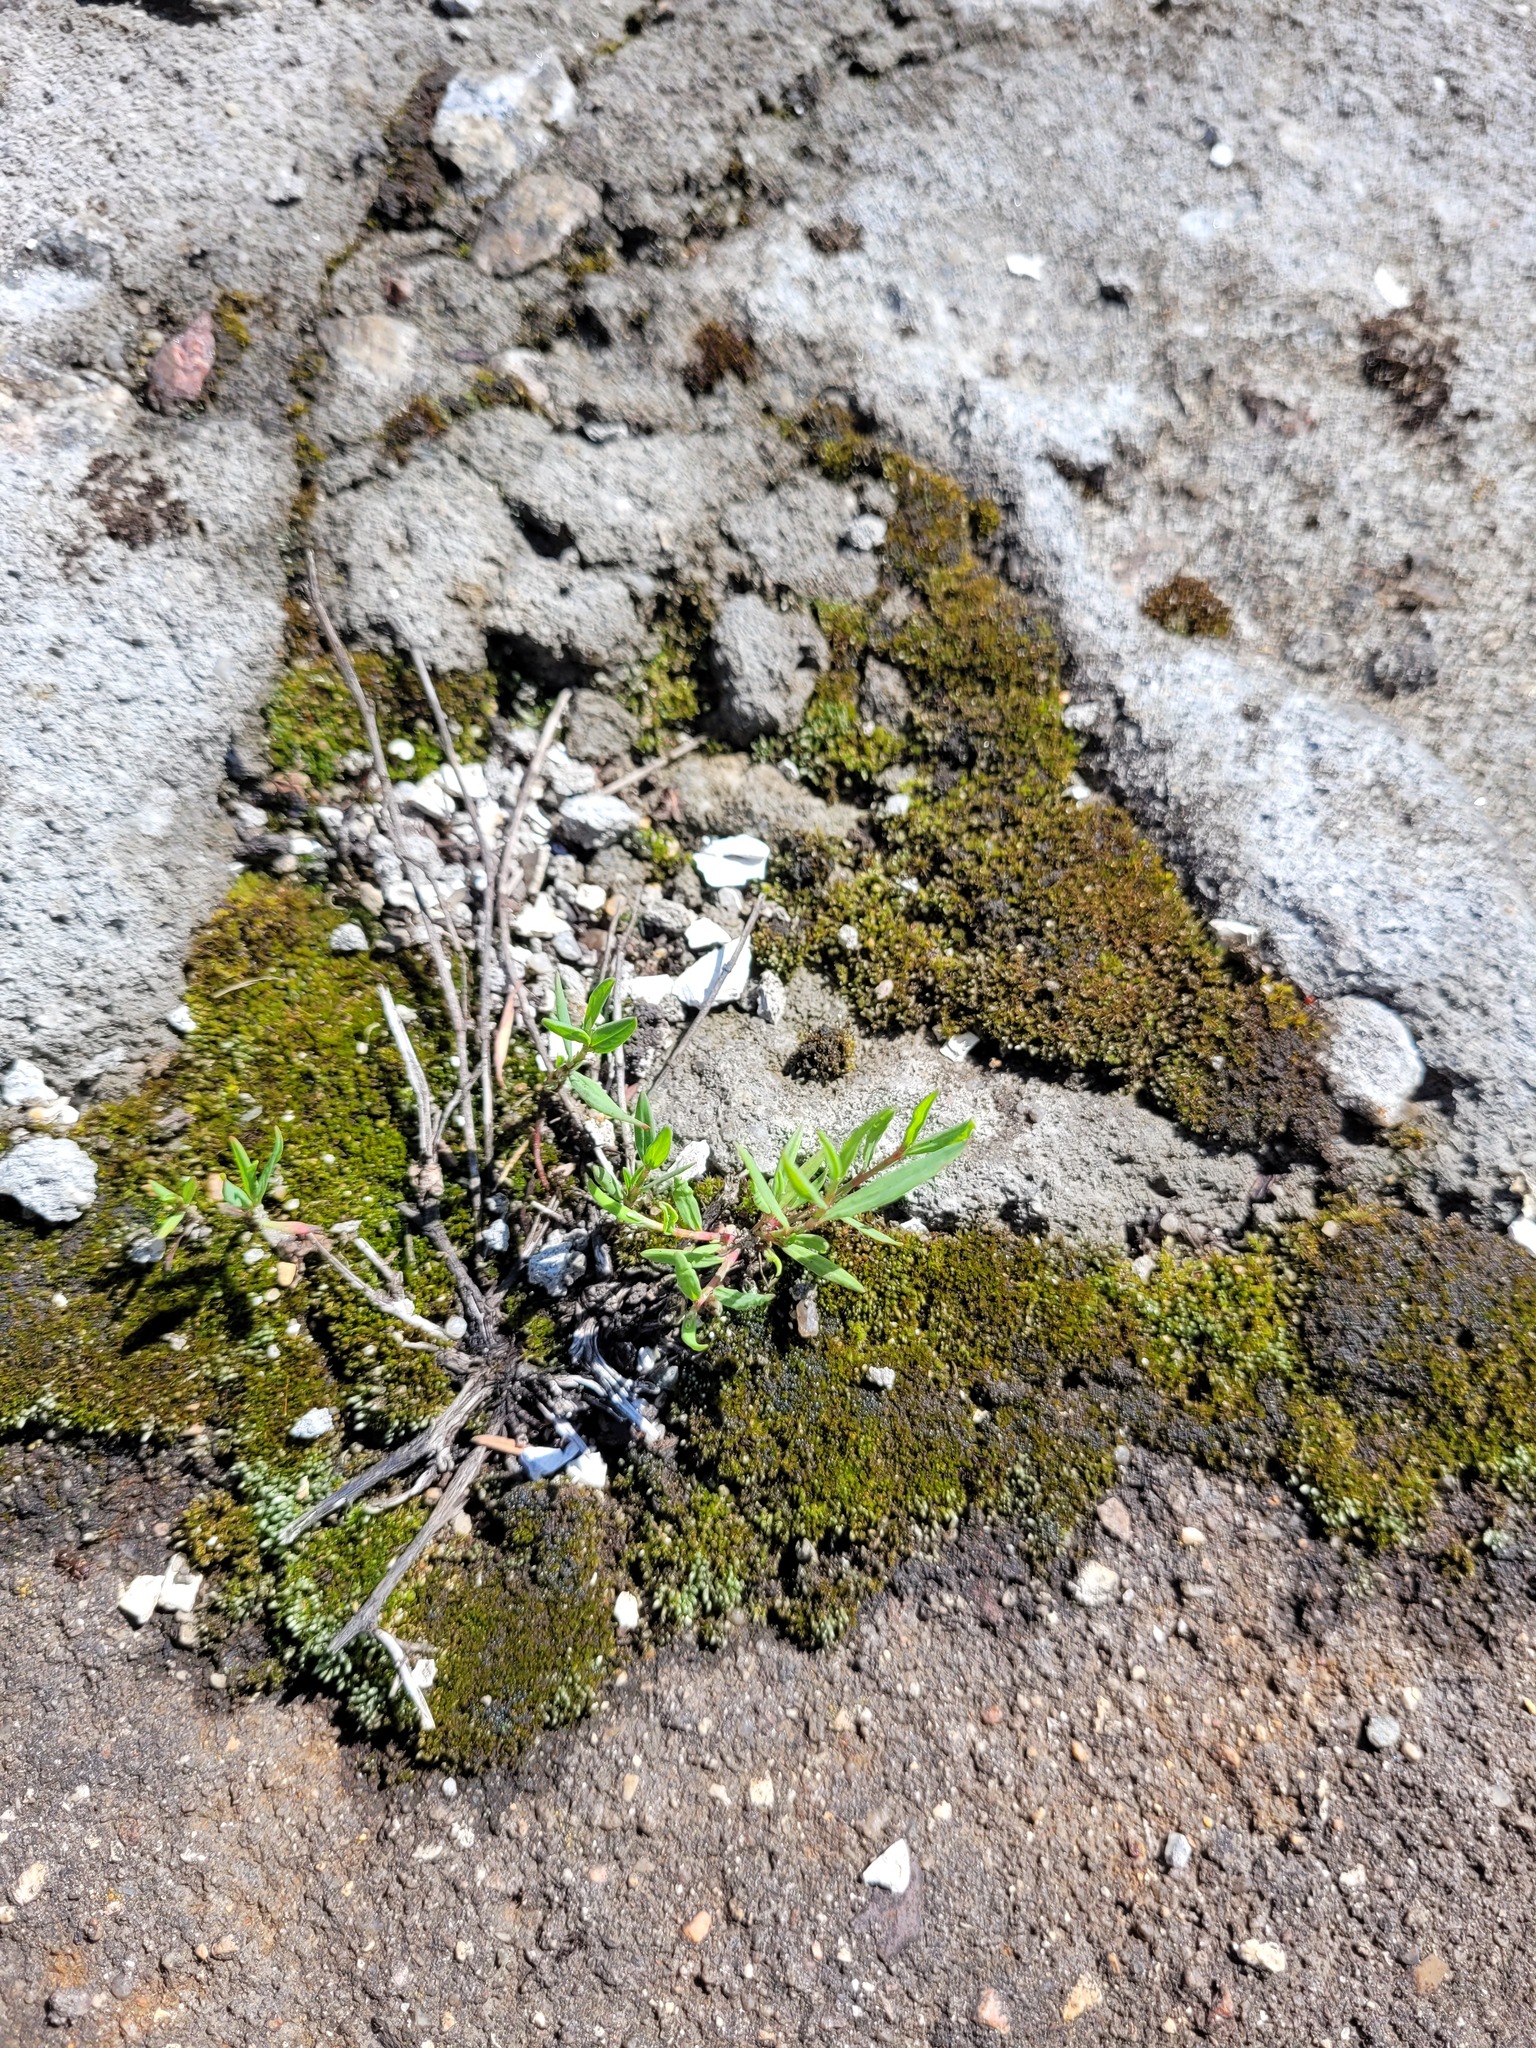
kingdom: Plantae
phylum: Tracheophyta
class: Magnoliopsida
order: Caryophyllales
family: Polygonaceae
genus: Polygonum
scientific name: Polygonum
